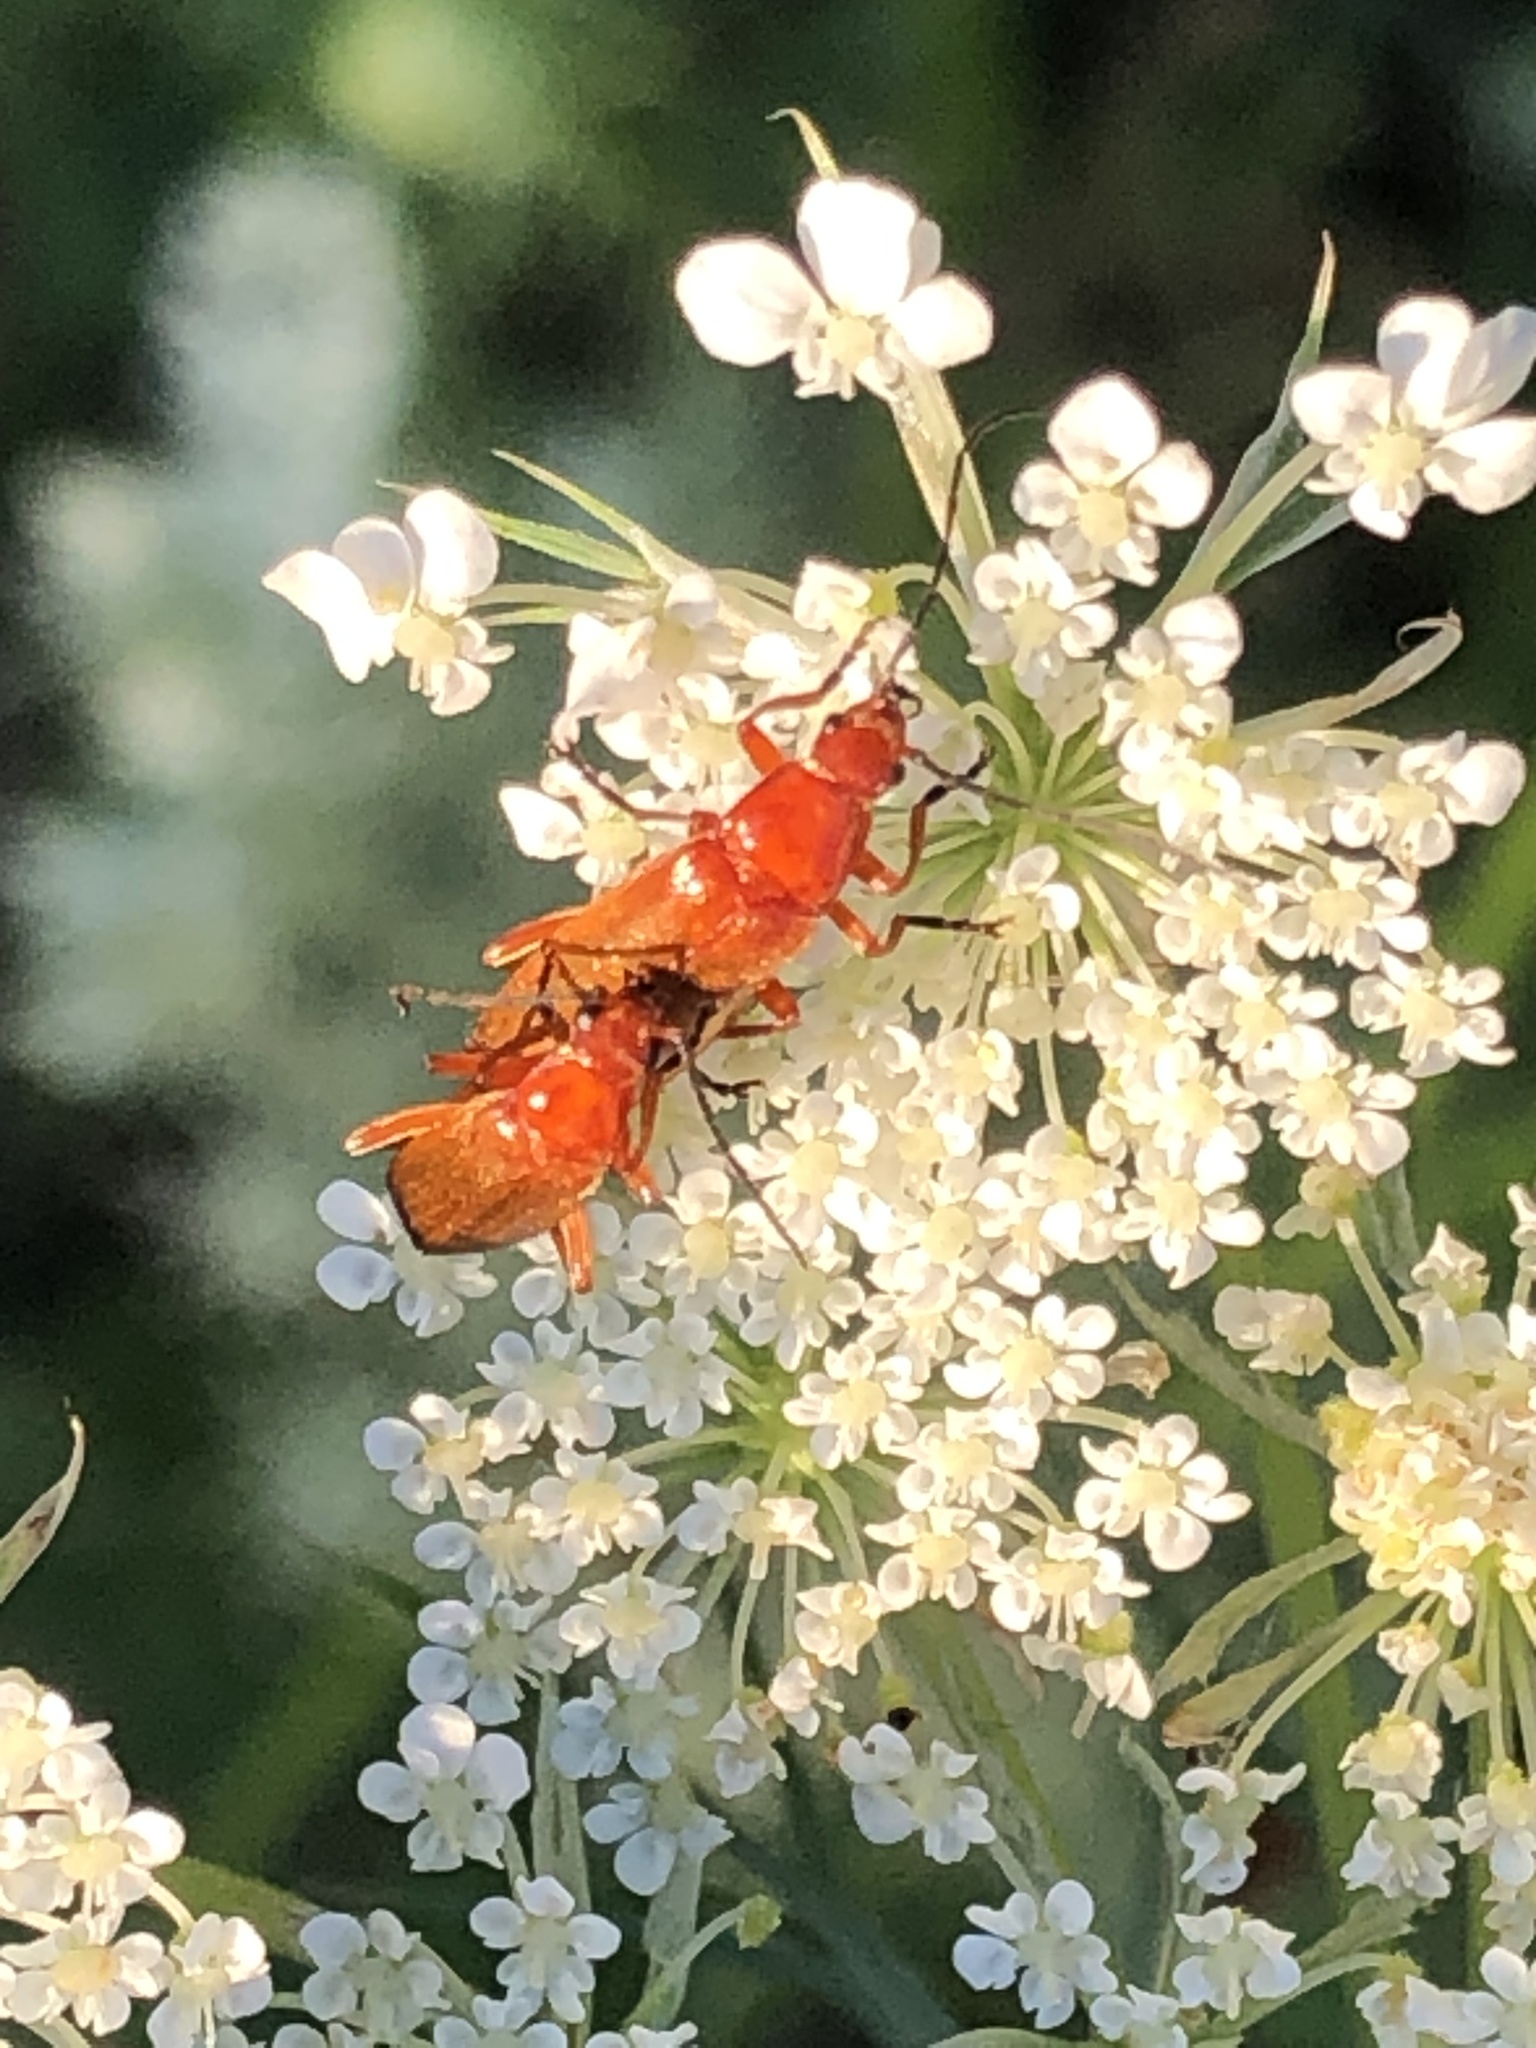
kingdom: Animalia
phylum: Arthropoda
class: Insecta
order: Coleoptera
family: Cantharidae
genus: Rhagonycha
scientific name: Rhagonycha fulva
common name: Common red soldier beetle
